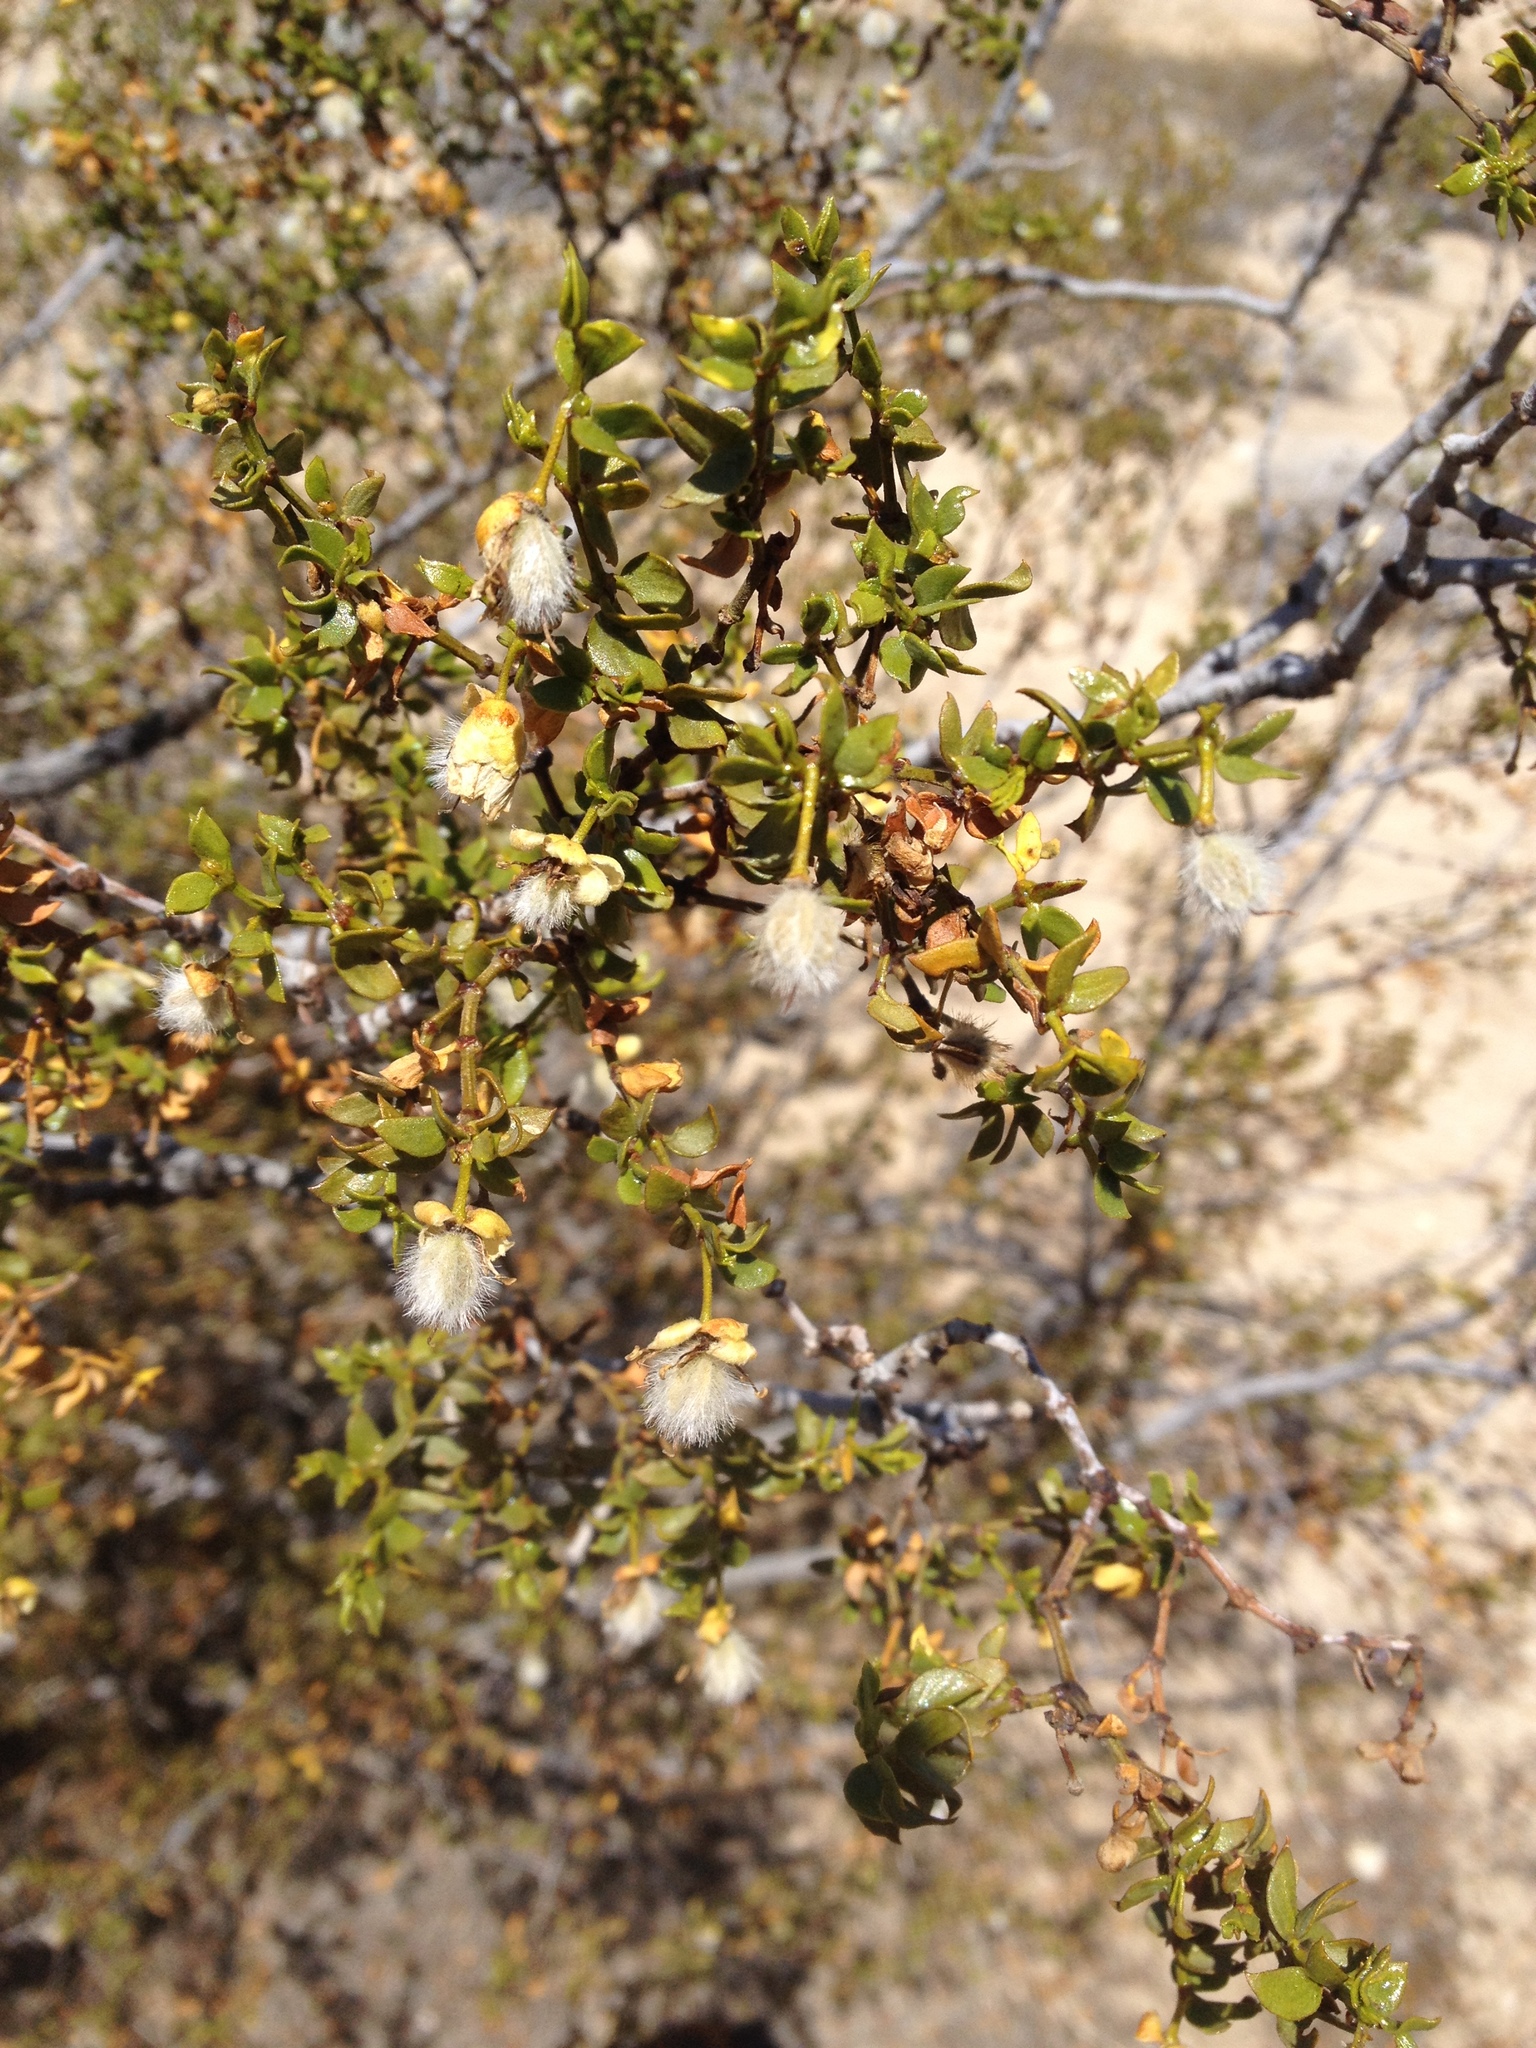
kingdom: Plantae
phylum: Tracheophyta
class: Magnoliopsida
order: Zygophyllales
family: Zygophyllaceae
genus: Larrea
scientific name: Larrea tridentata
